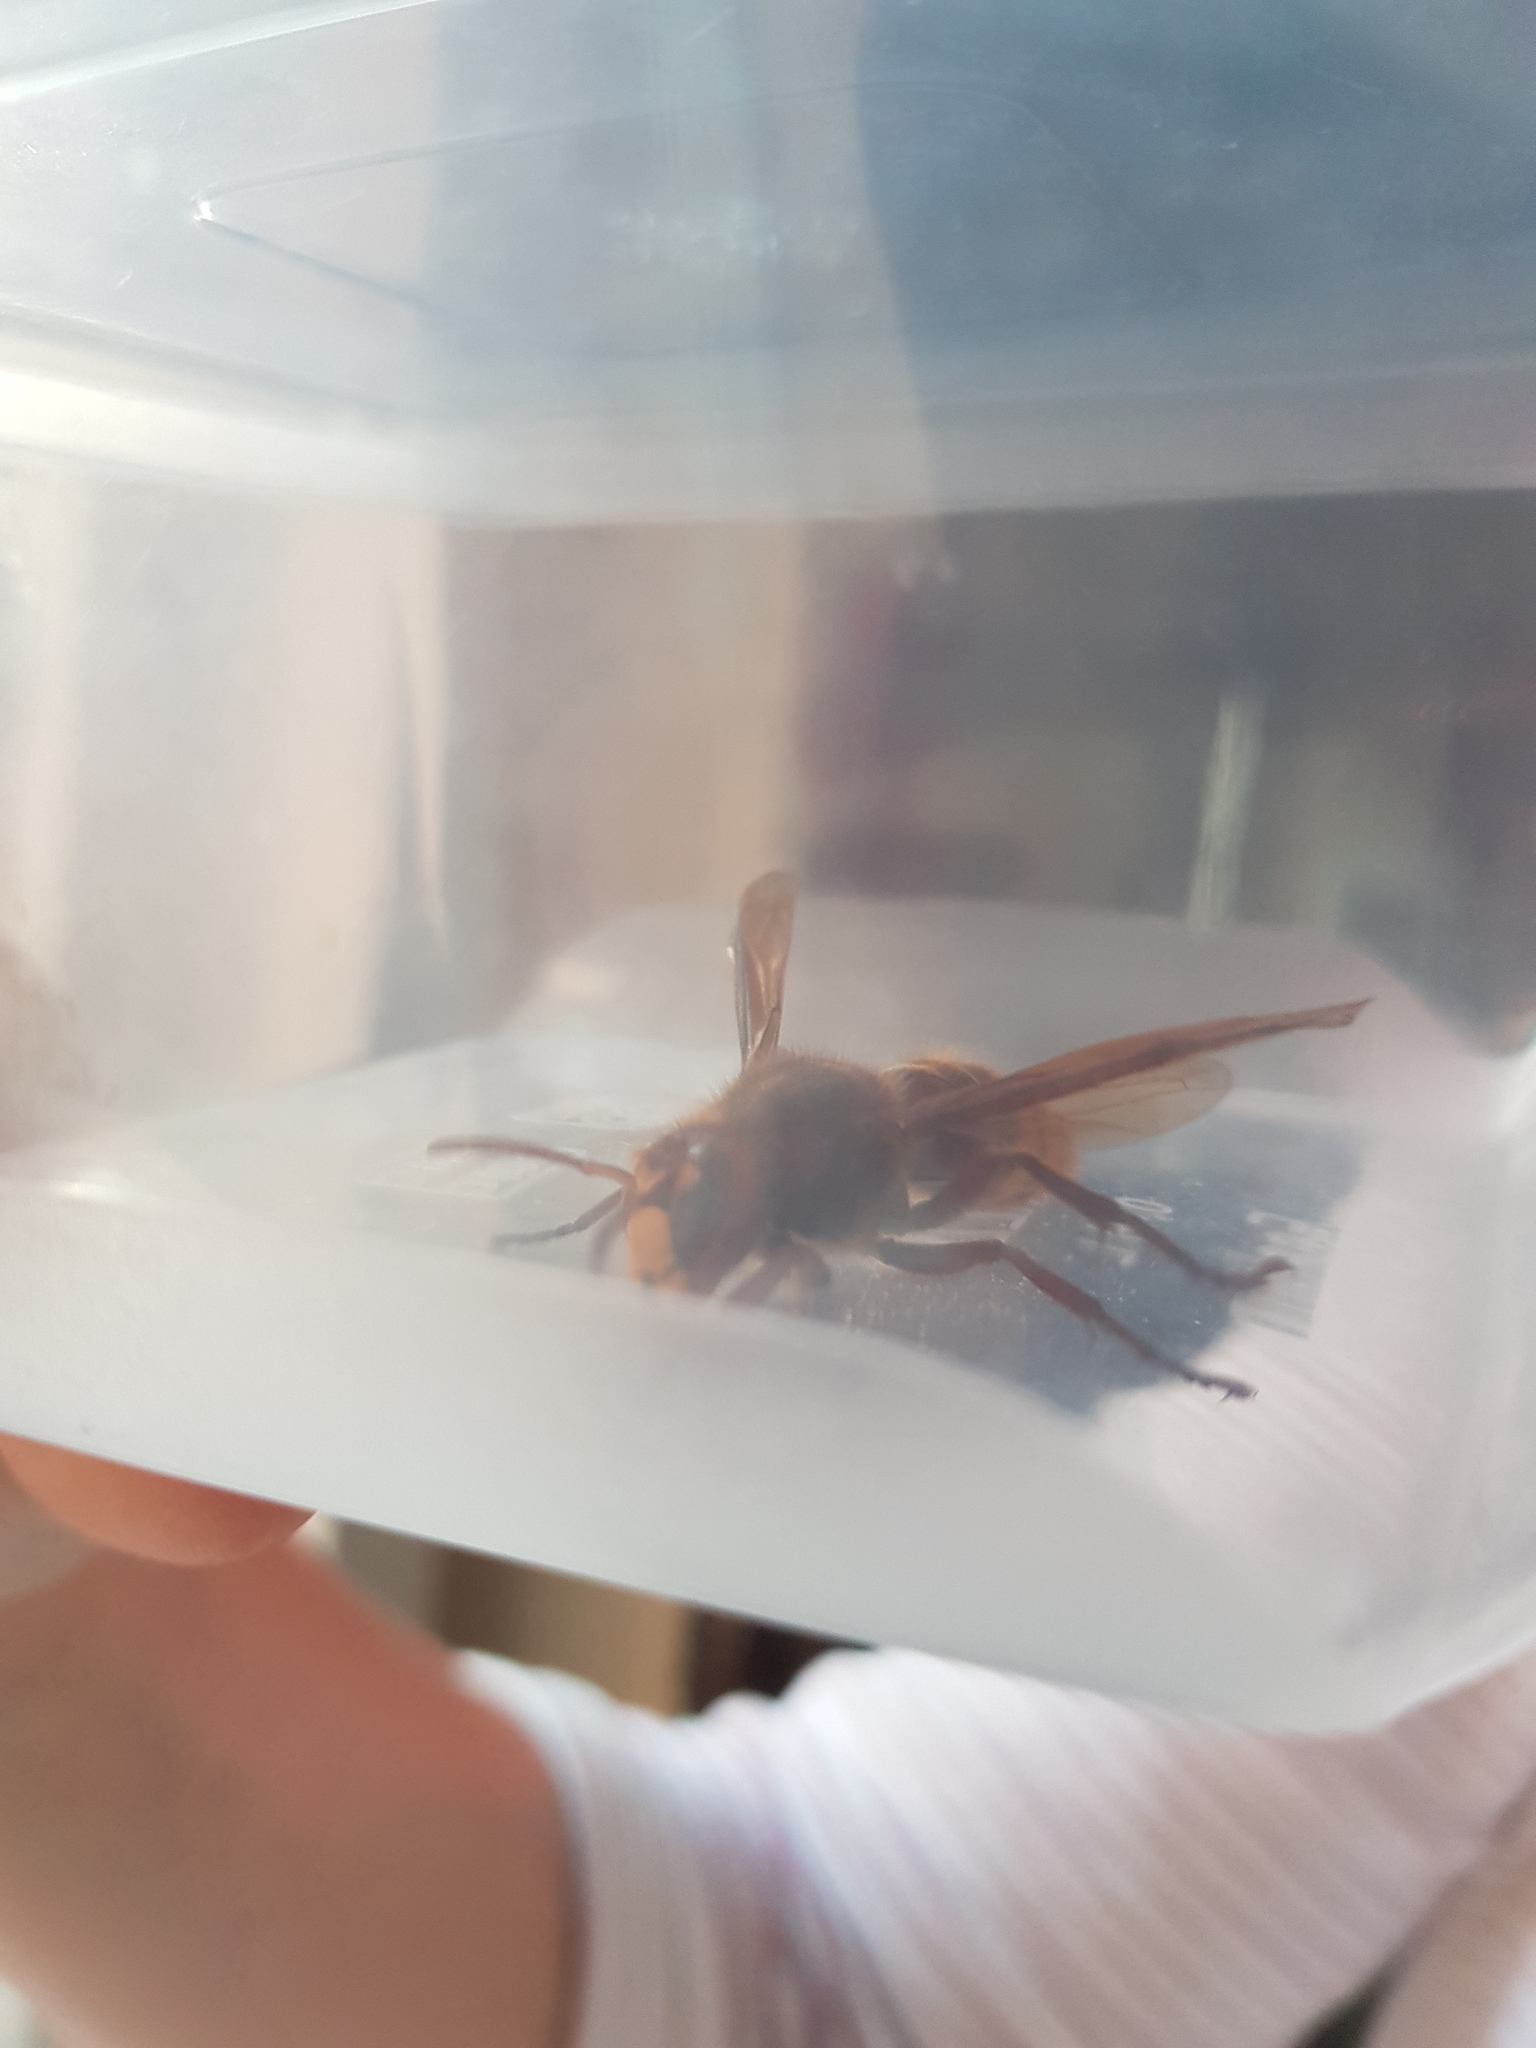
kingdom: Animalia
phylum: Arthropoda
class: Insecta
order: Hymenoptera
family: Vespidae
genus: Vespa
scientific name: Vespa crabro
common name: Hornet
